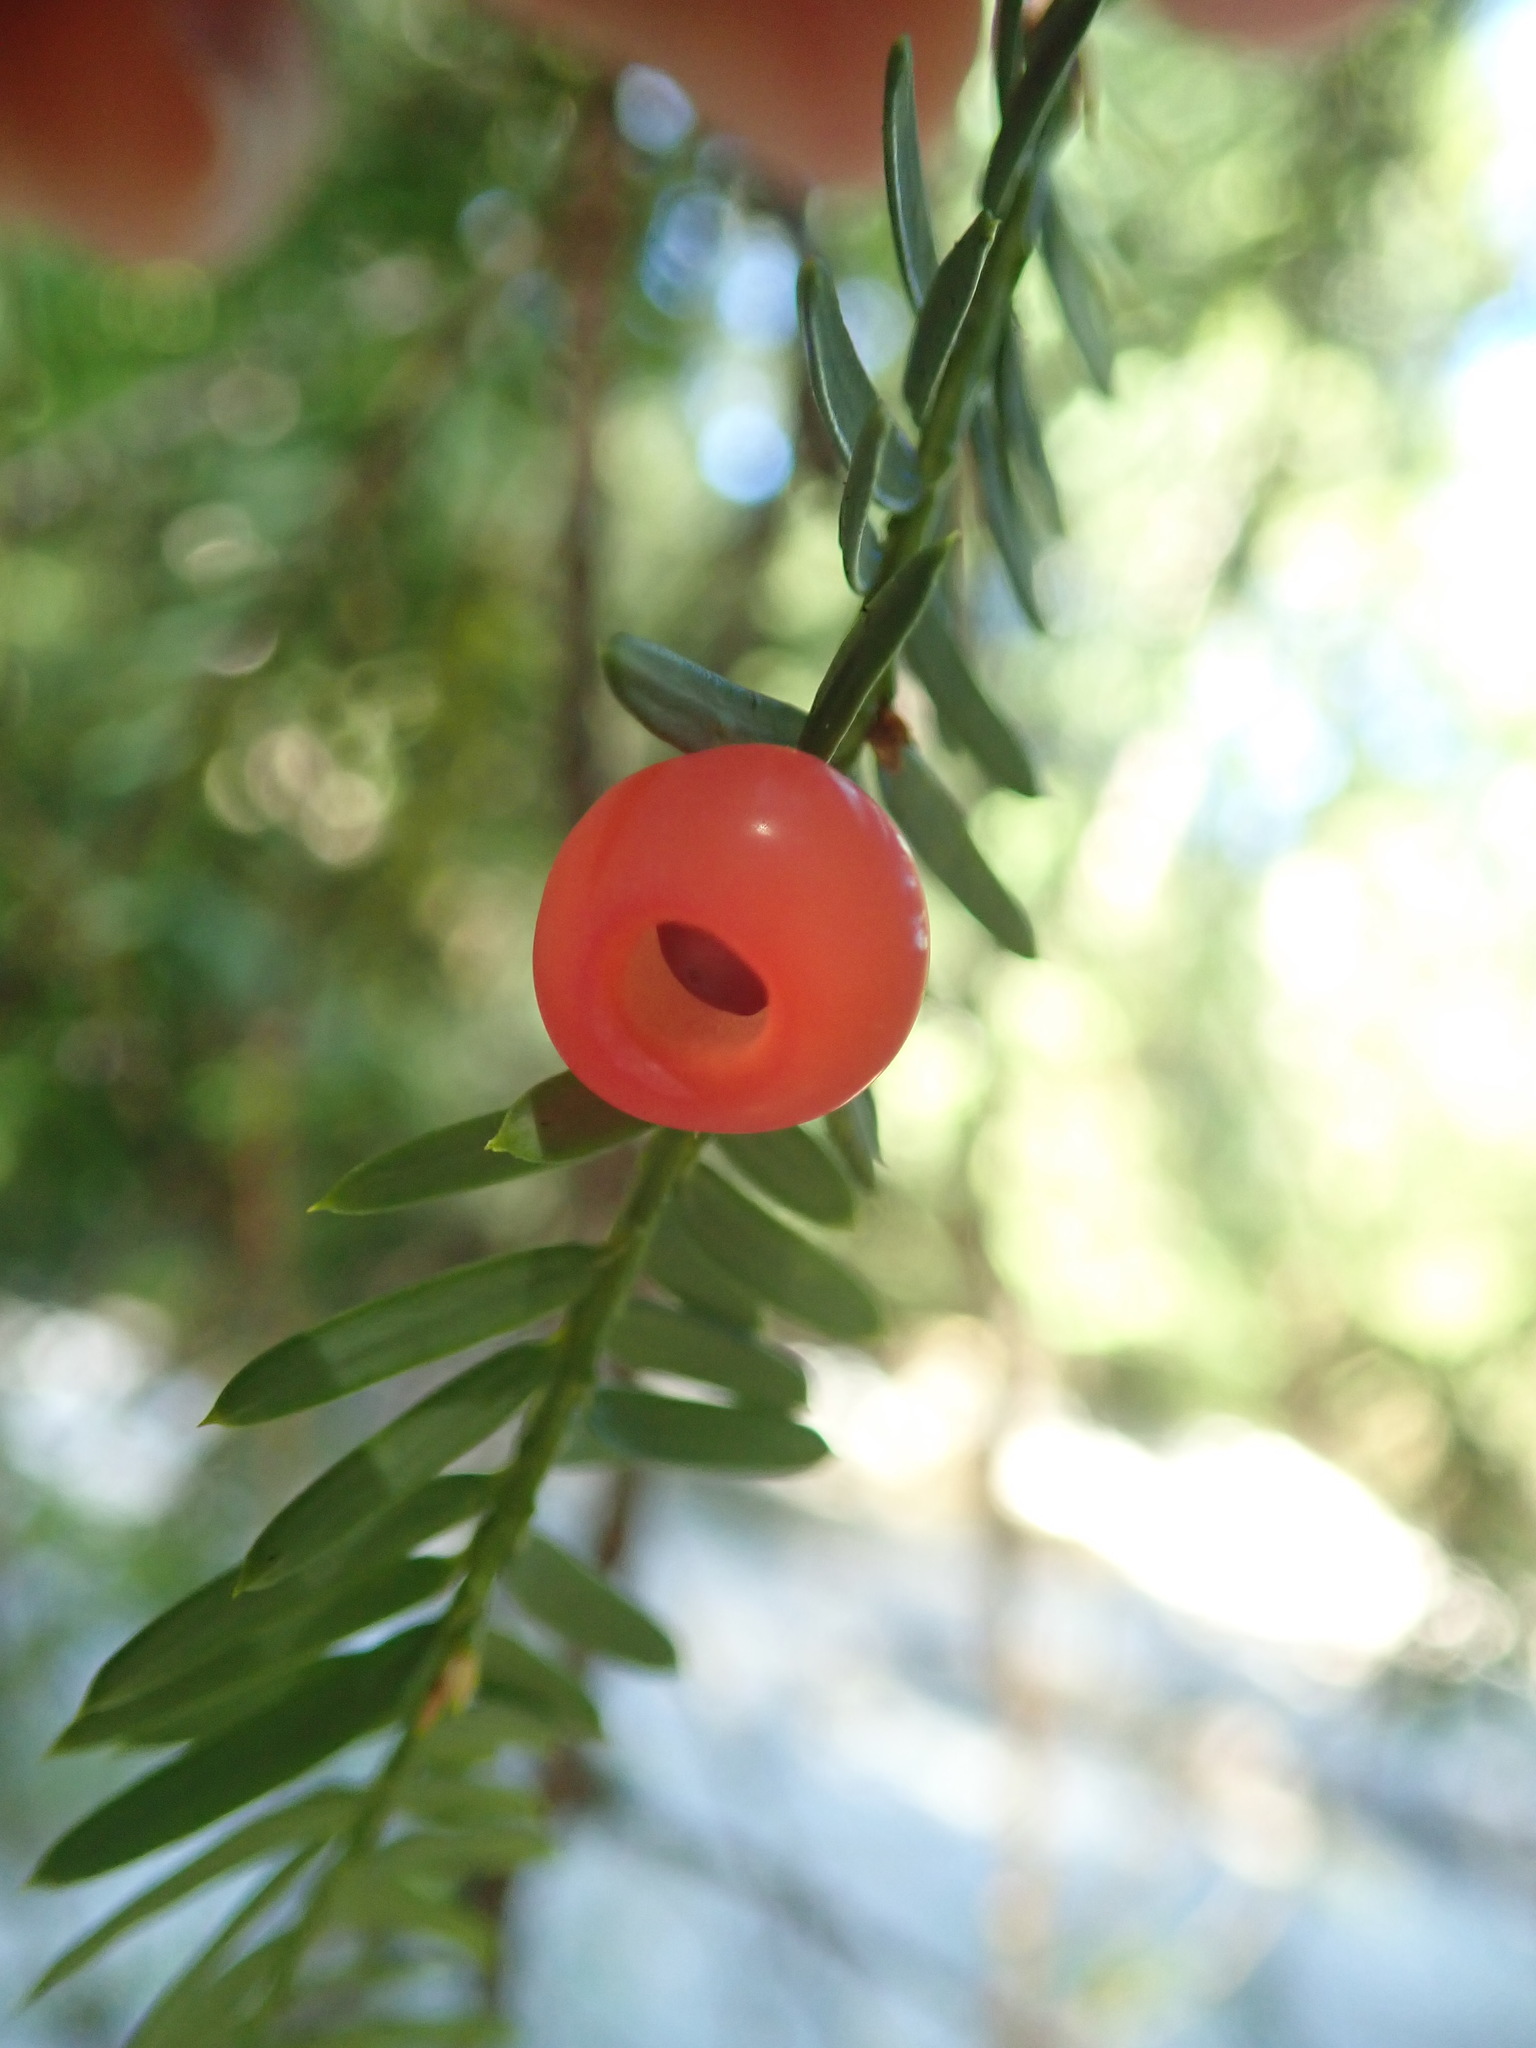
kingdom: Plantae
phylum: Tracheophyta
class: Pinopsida
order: Pinales
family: Taxaceae
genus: Taxus
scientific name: Taxus brevifolia
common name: Pacific yew
